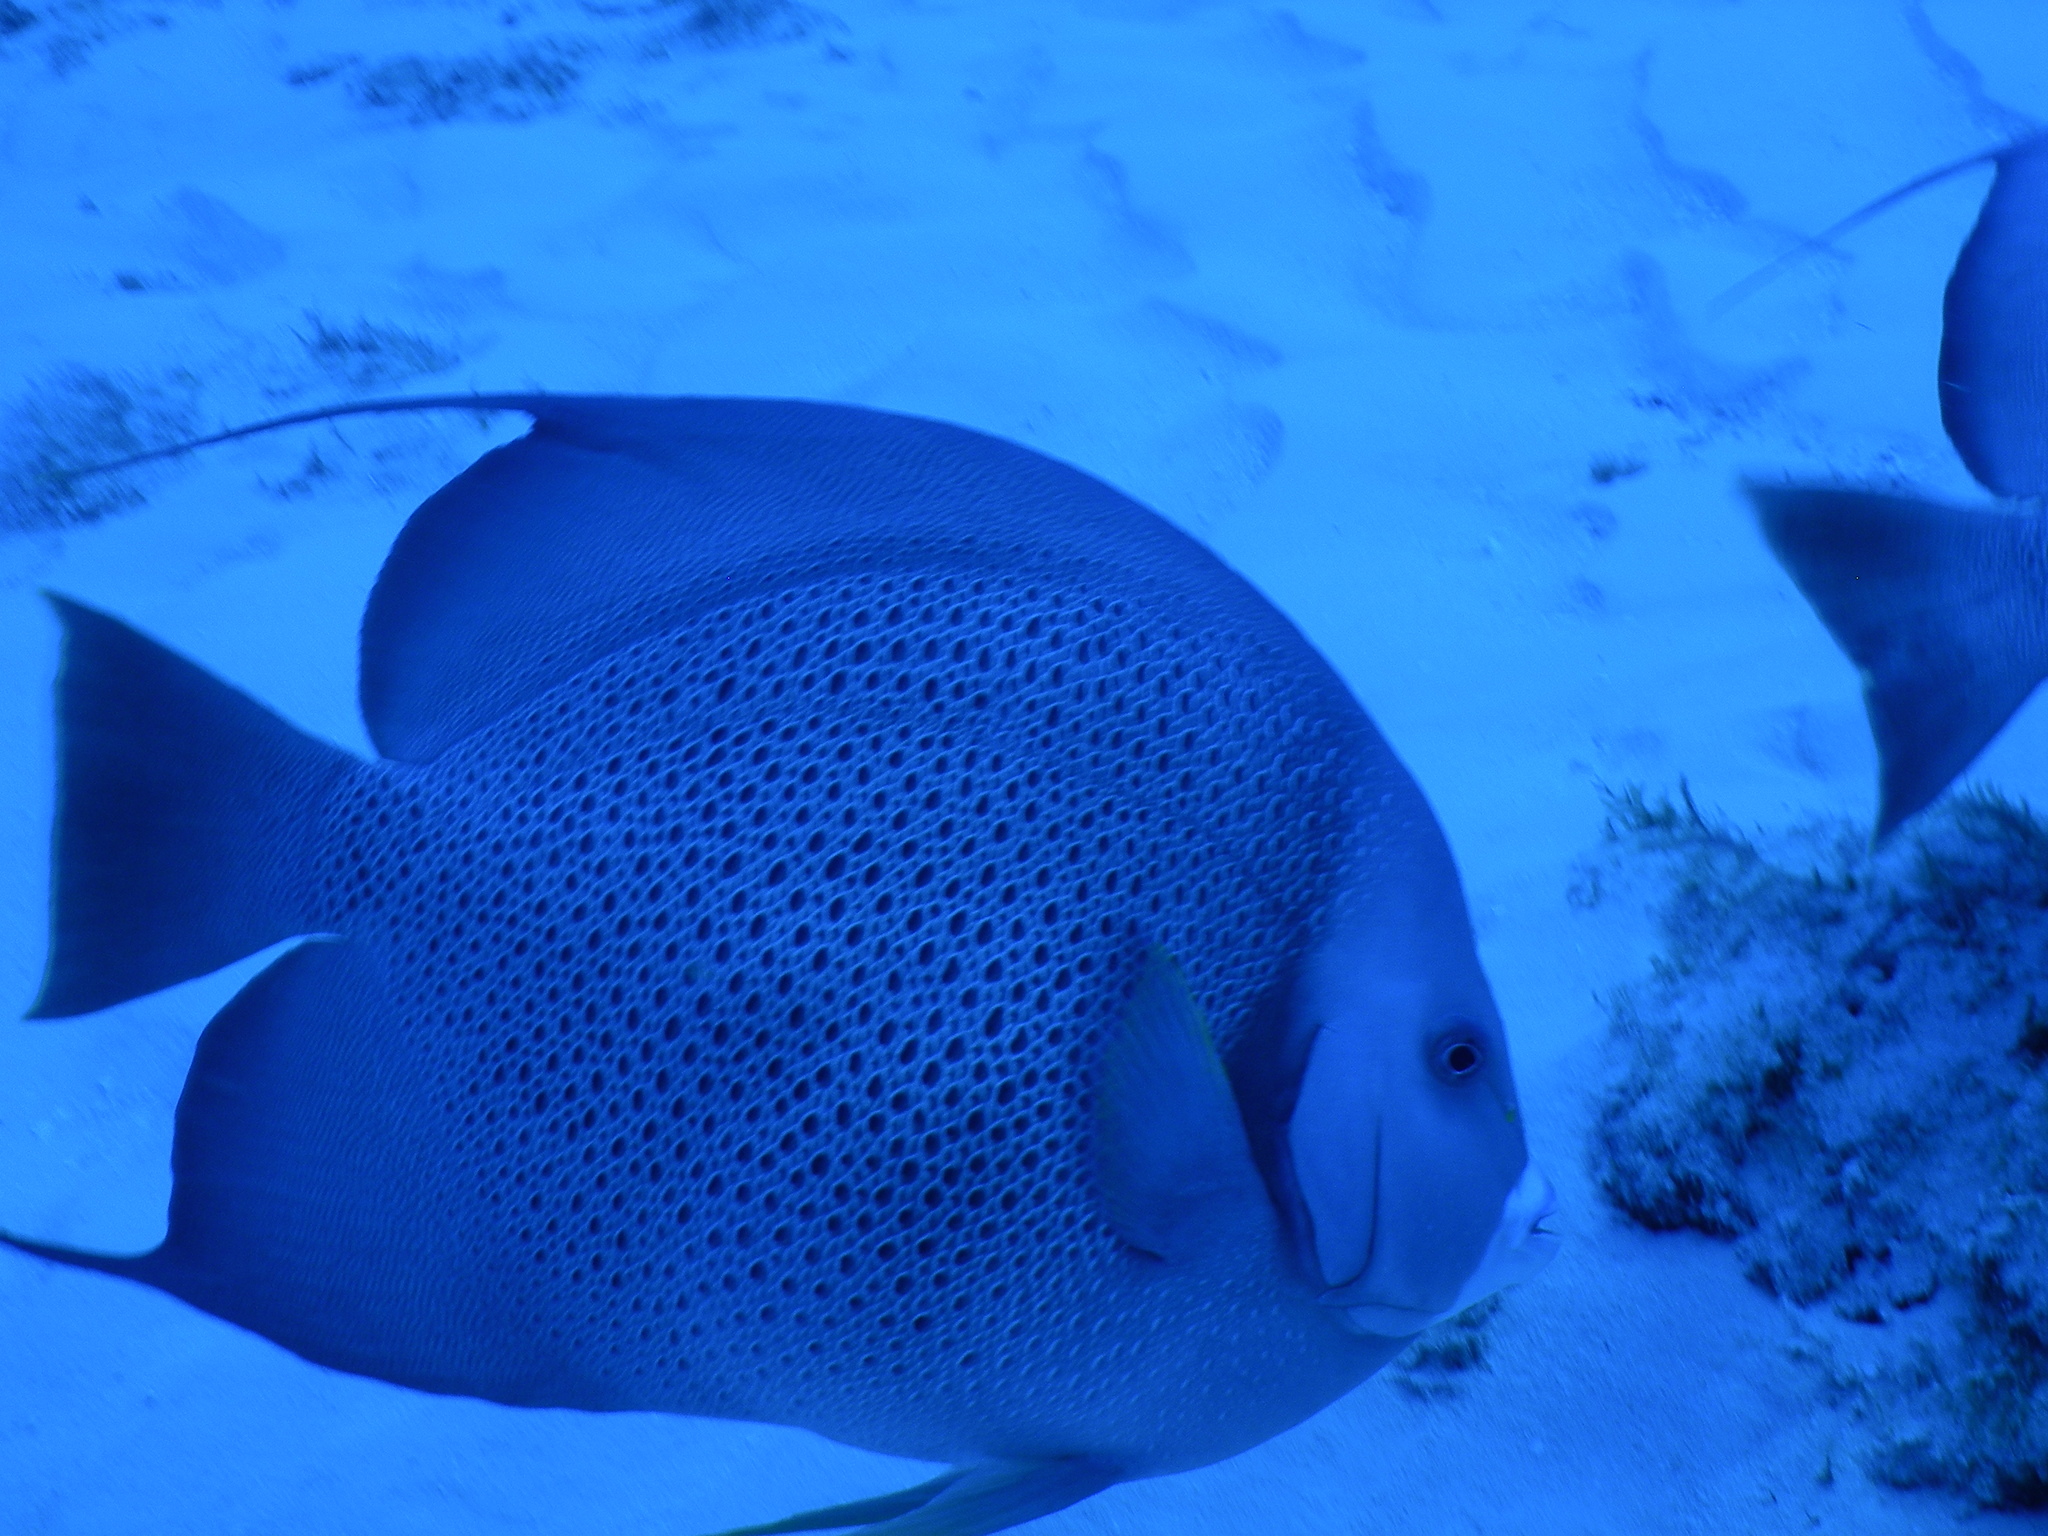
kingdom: Animalia
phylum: Chordata
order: Perciformes
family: Pomacanthidae
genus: Pomacanthus
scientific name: Pomacanthus arcuatus
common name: Gray angelfish
